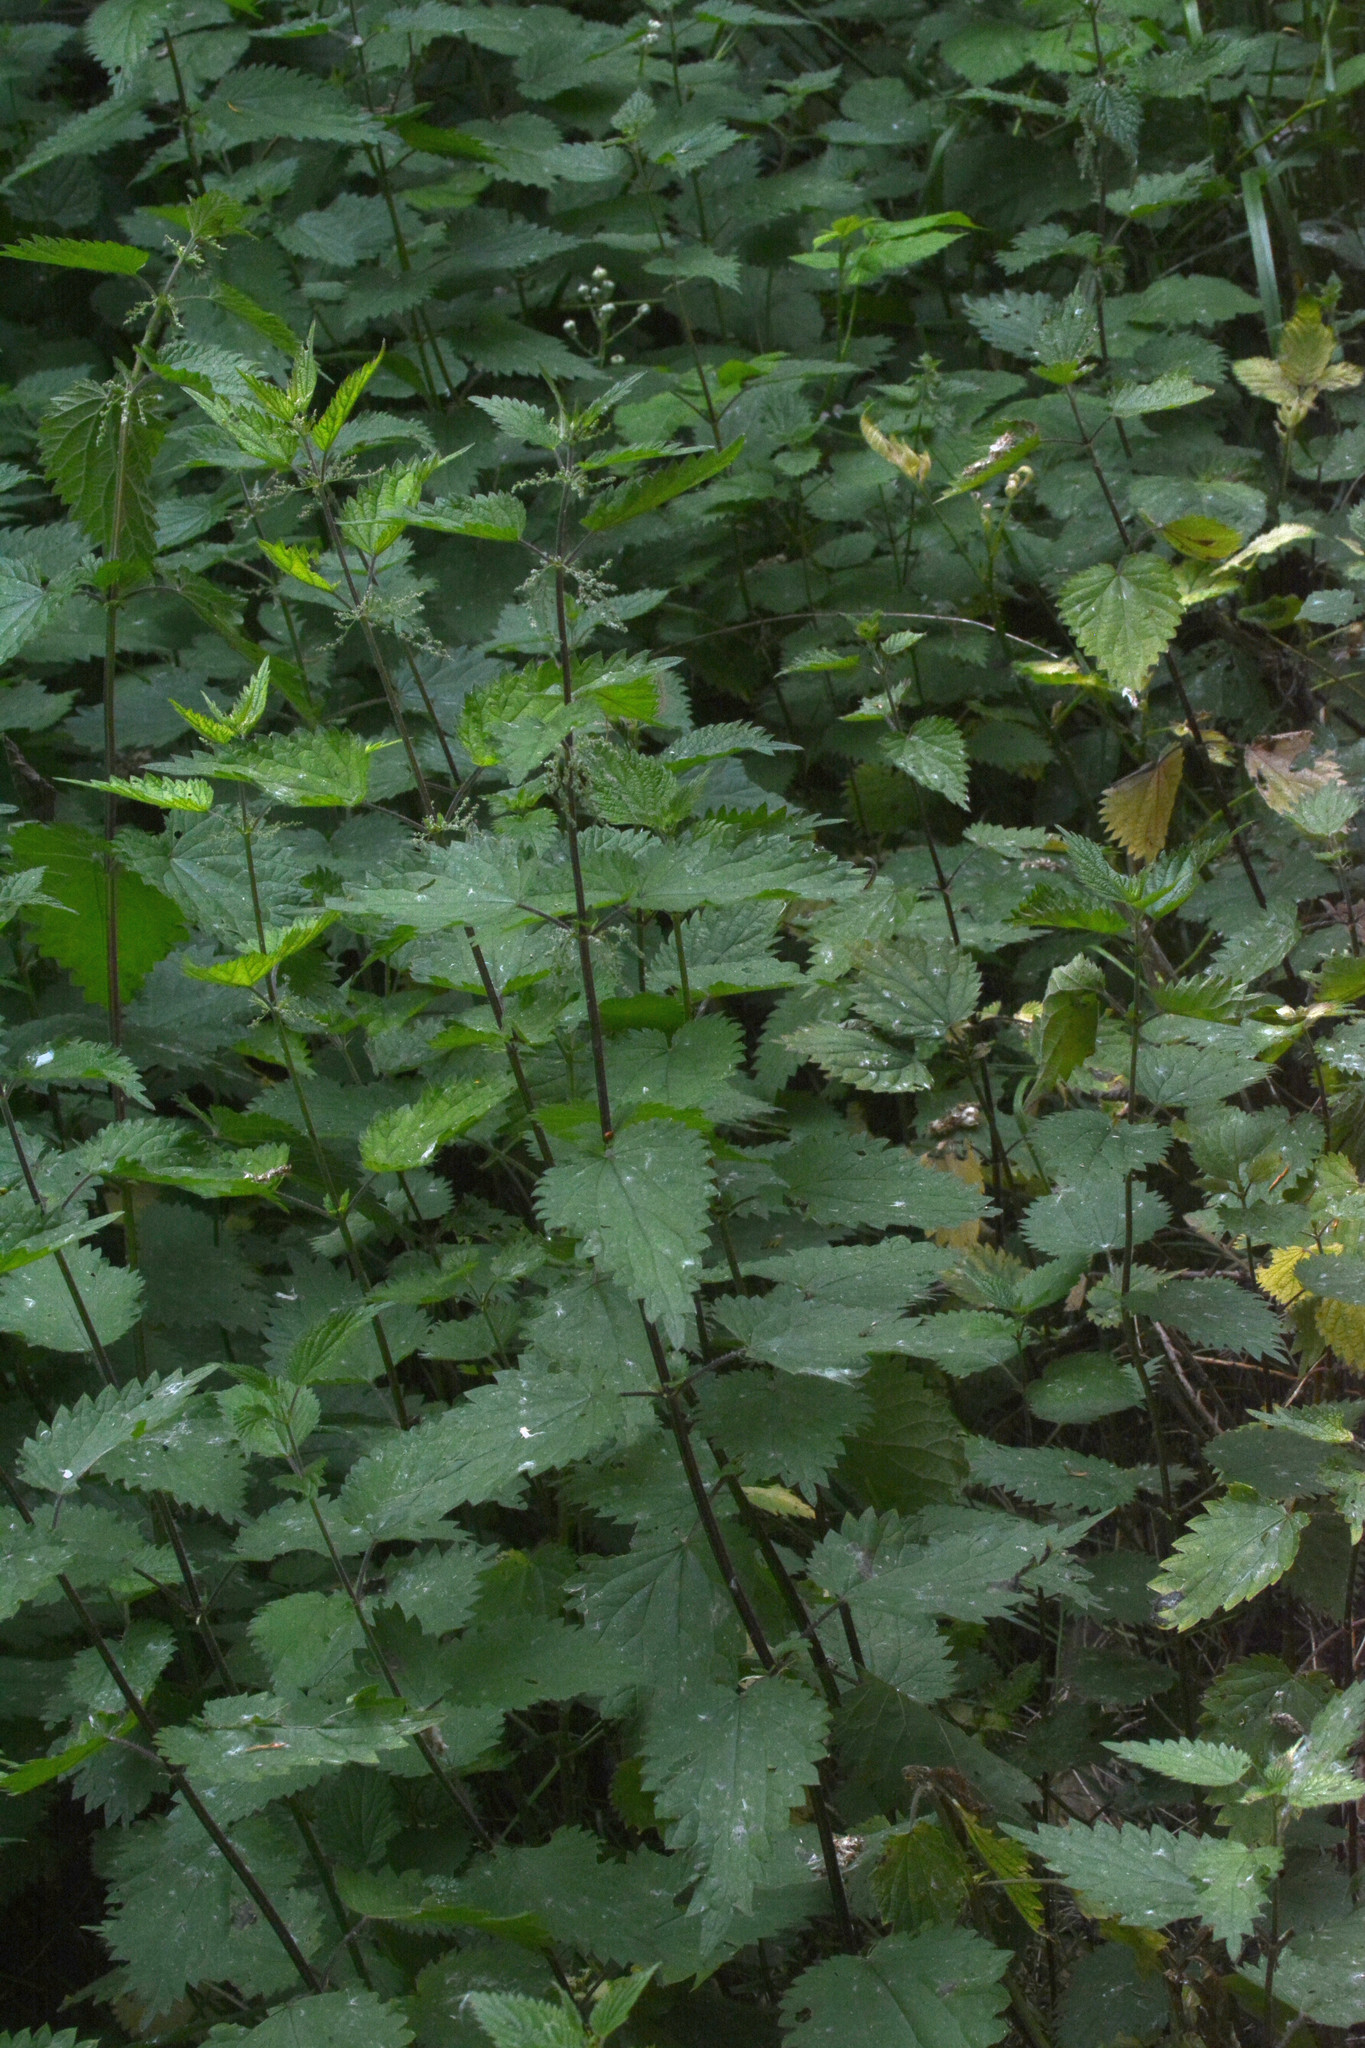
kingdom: Plantae
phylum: Tracheophyta
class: Magnoliopsida
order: Rosales
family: Urticaceae
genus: Urtica
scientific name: Urtica dioica
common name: Common nettle
